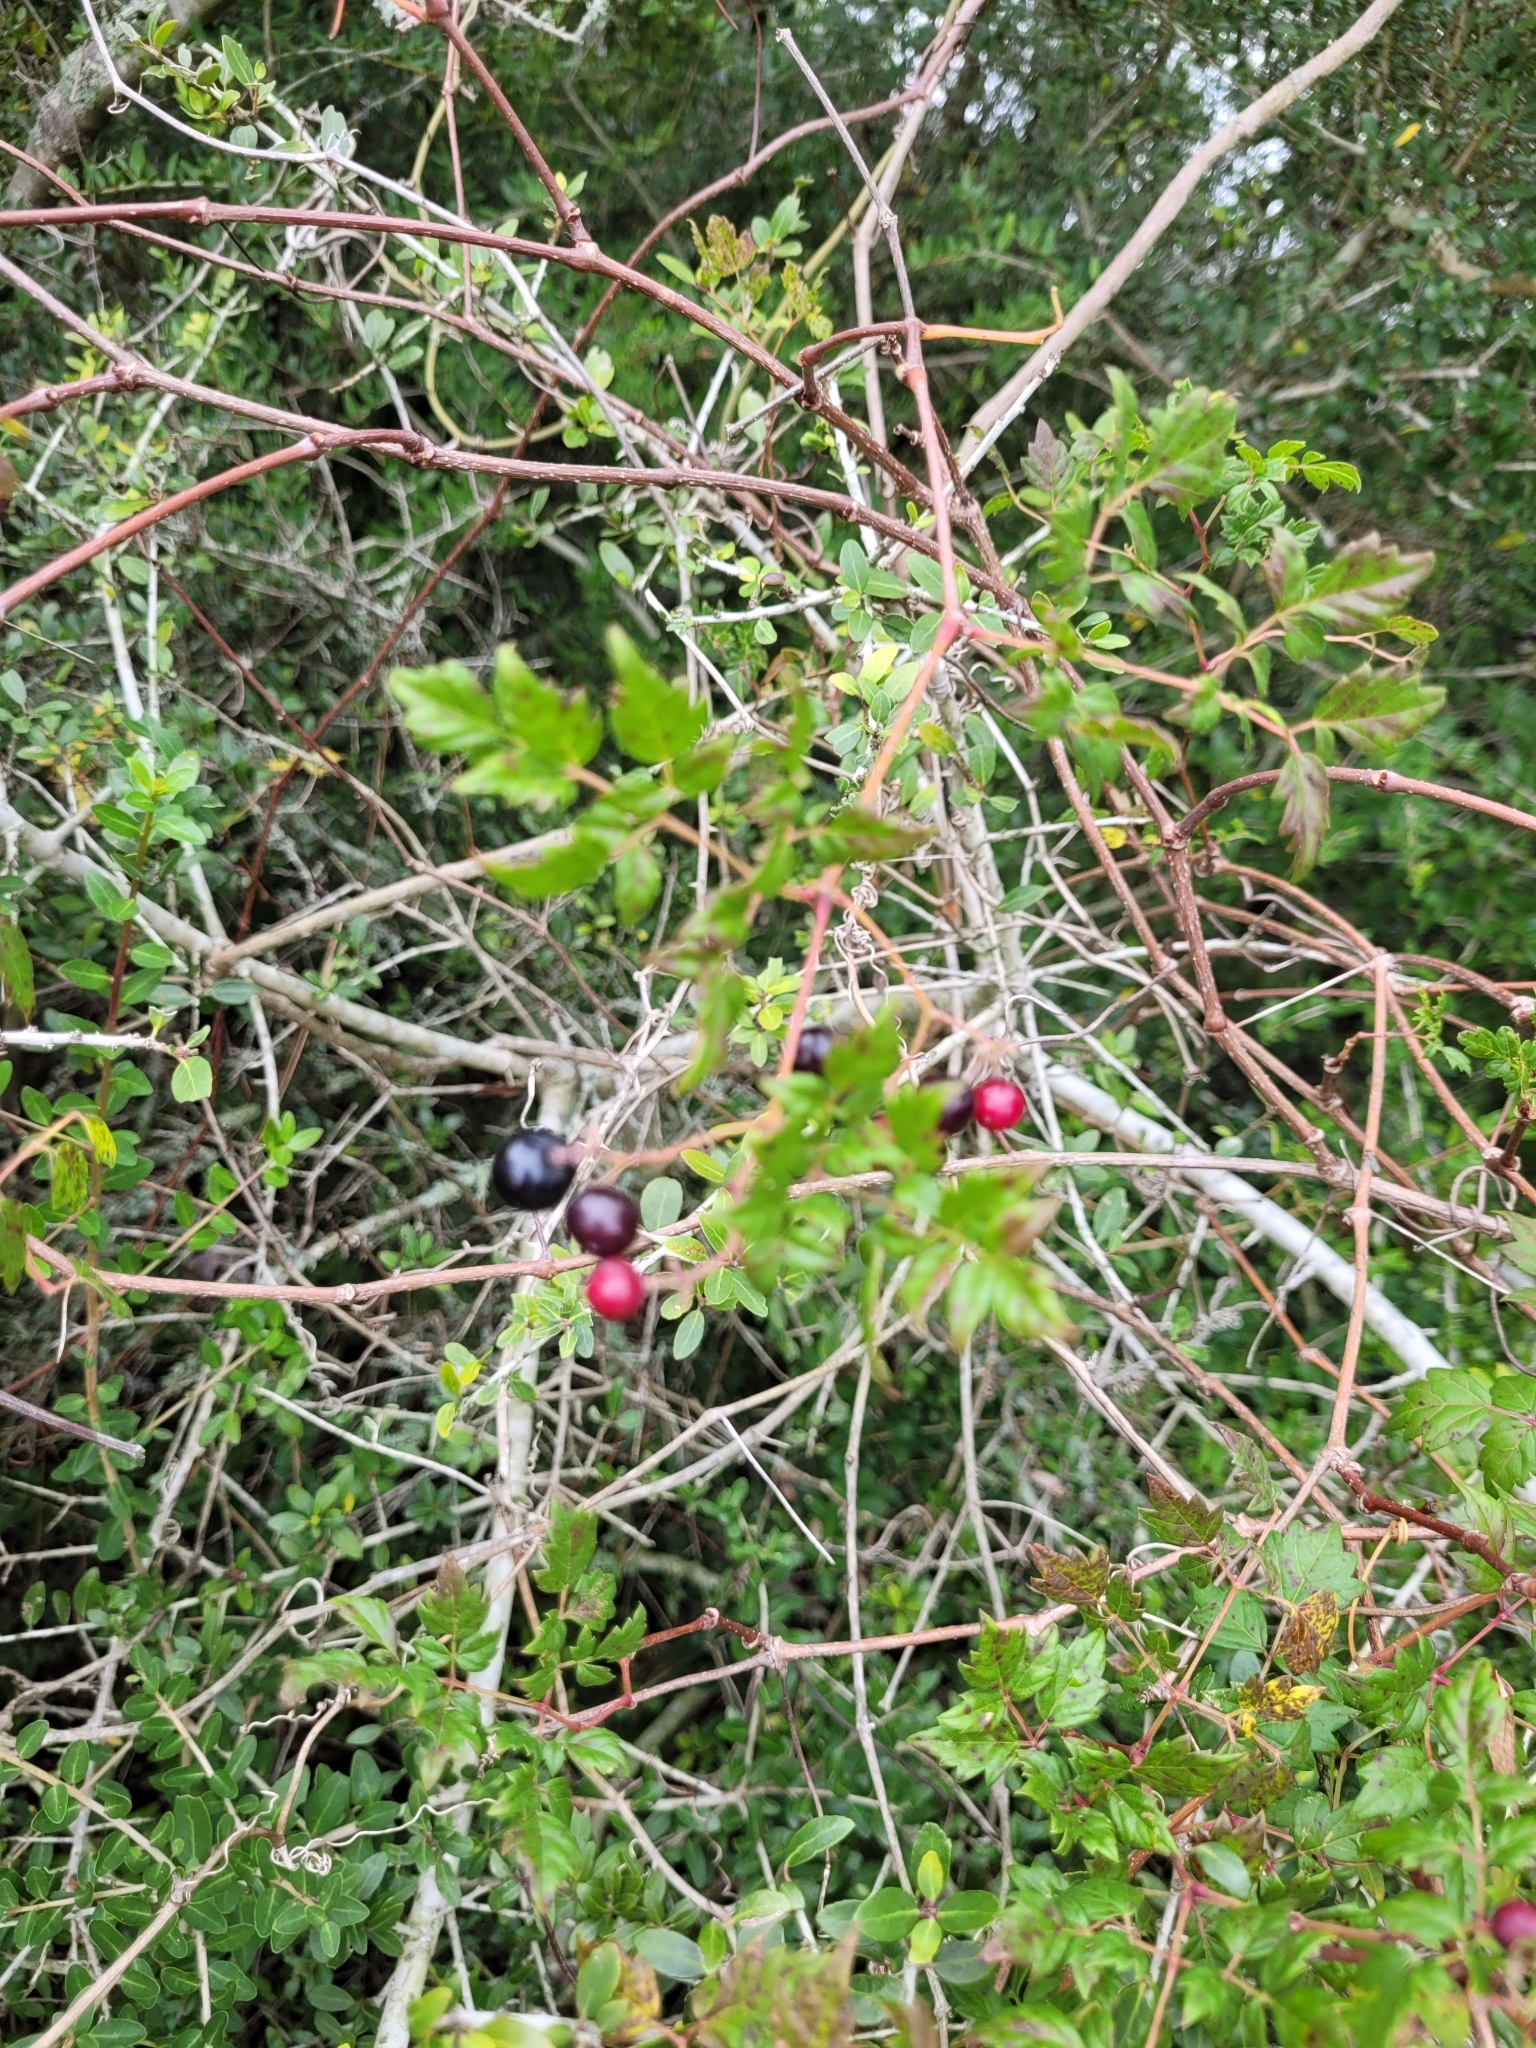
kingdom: Plantae
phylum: Tracheophyta
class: Magnoliopsida
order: Vitales
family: Vitaceae
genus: Nekemias
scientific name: Nekemias arborea
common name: Peppervine
